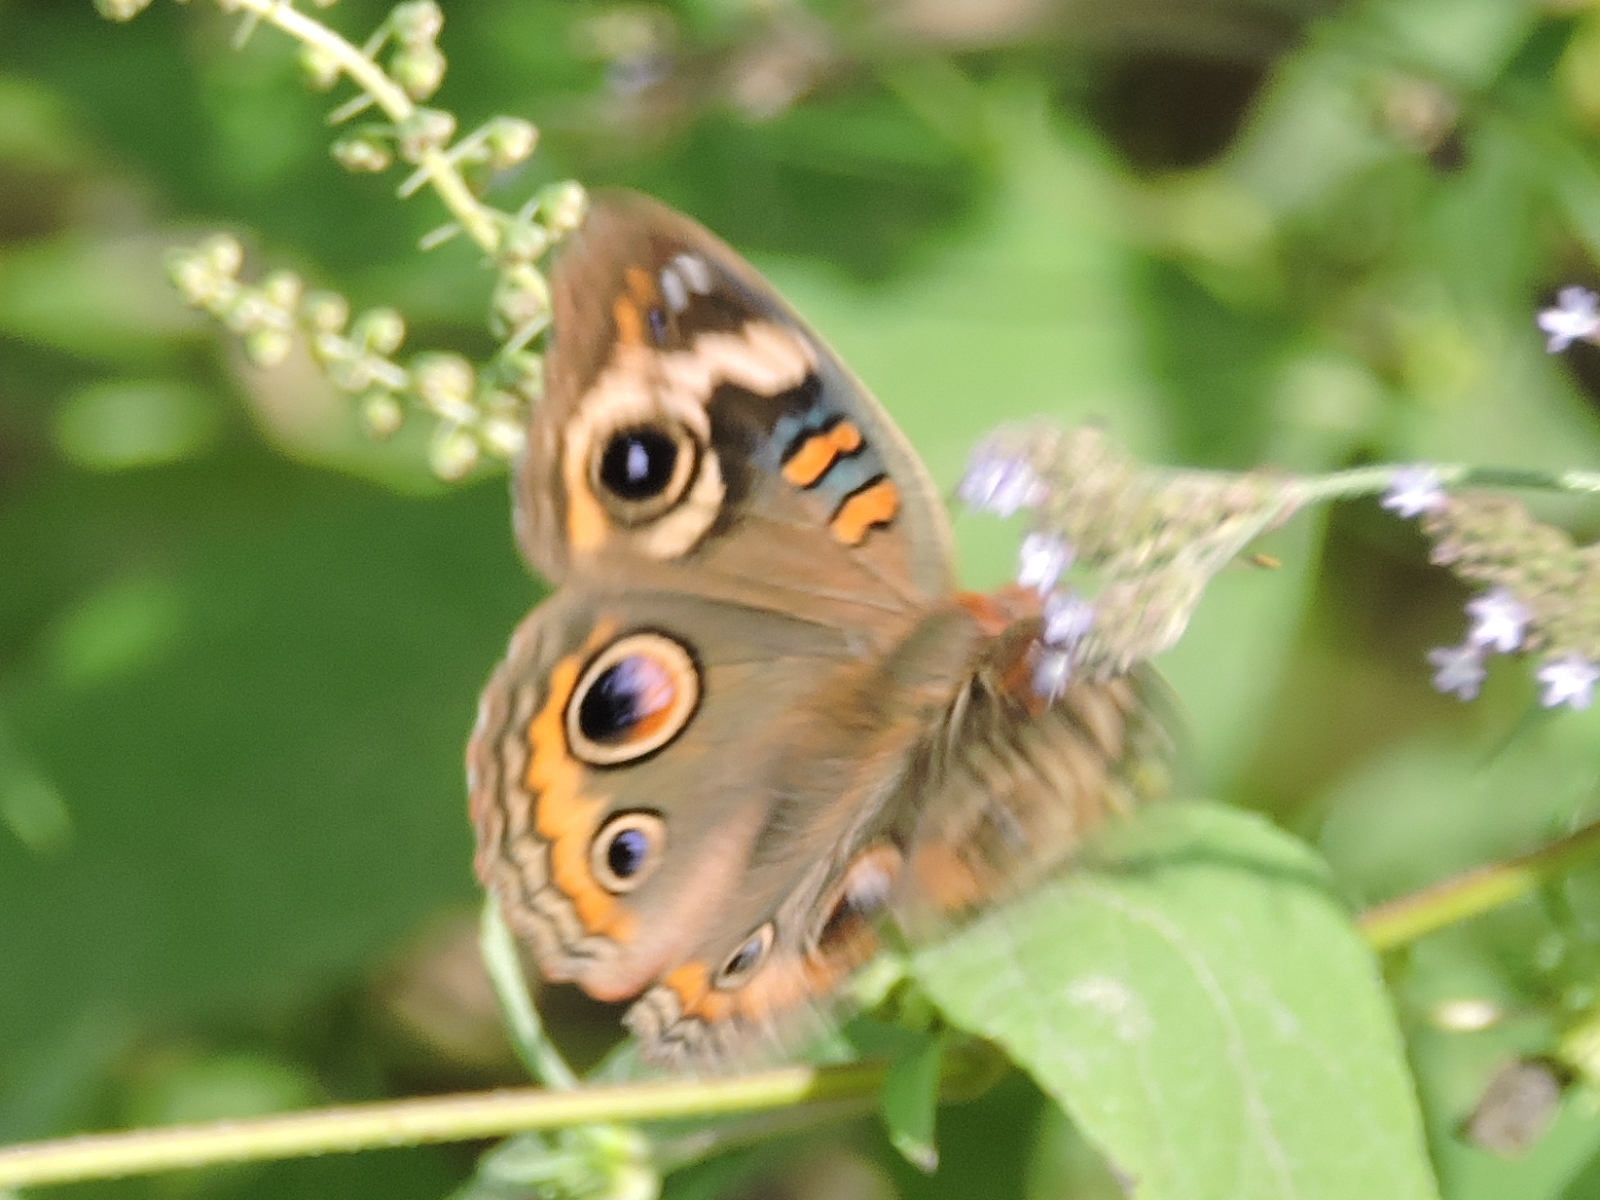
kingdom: Animalia
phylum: Arthropoda
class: Insecta
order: Lepidoptera
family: Nymphalidae
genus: Junonia
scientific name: Junonia coenia
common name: Common buckeye
